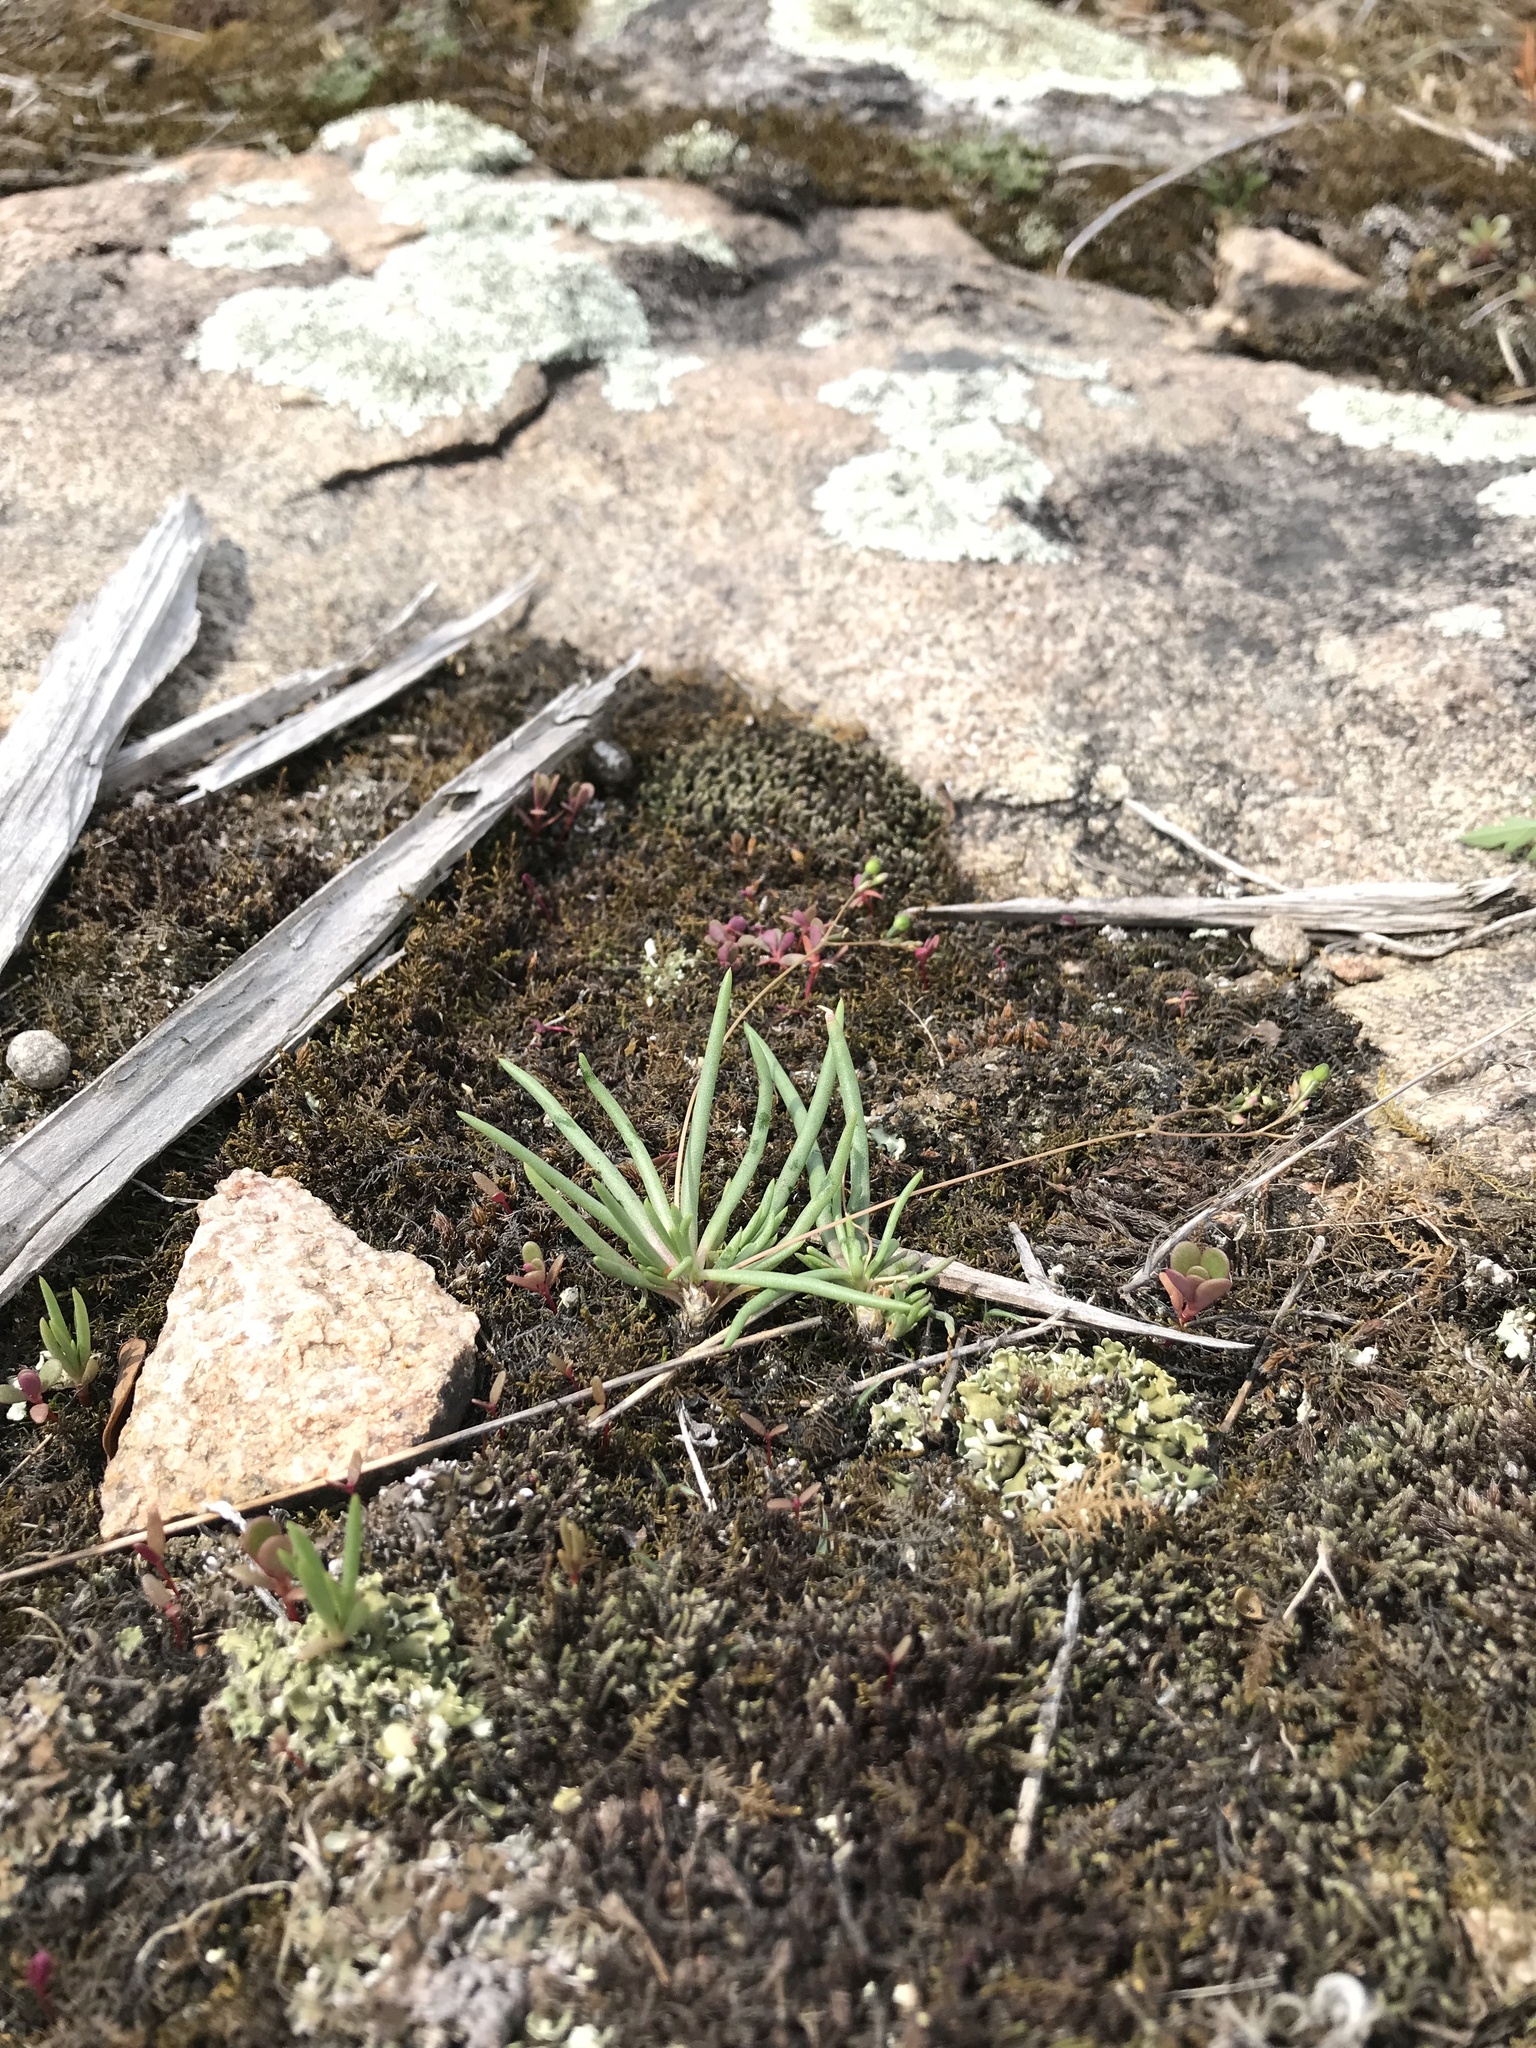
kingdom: Plantae
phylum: Tracheophyta
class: Magnoliopsida
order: Caryophyllales
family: Montiaceae
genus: Phemeranthus
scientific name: Phemeranthus parviflorus
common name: Sunbright
